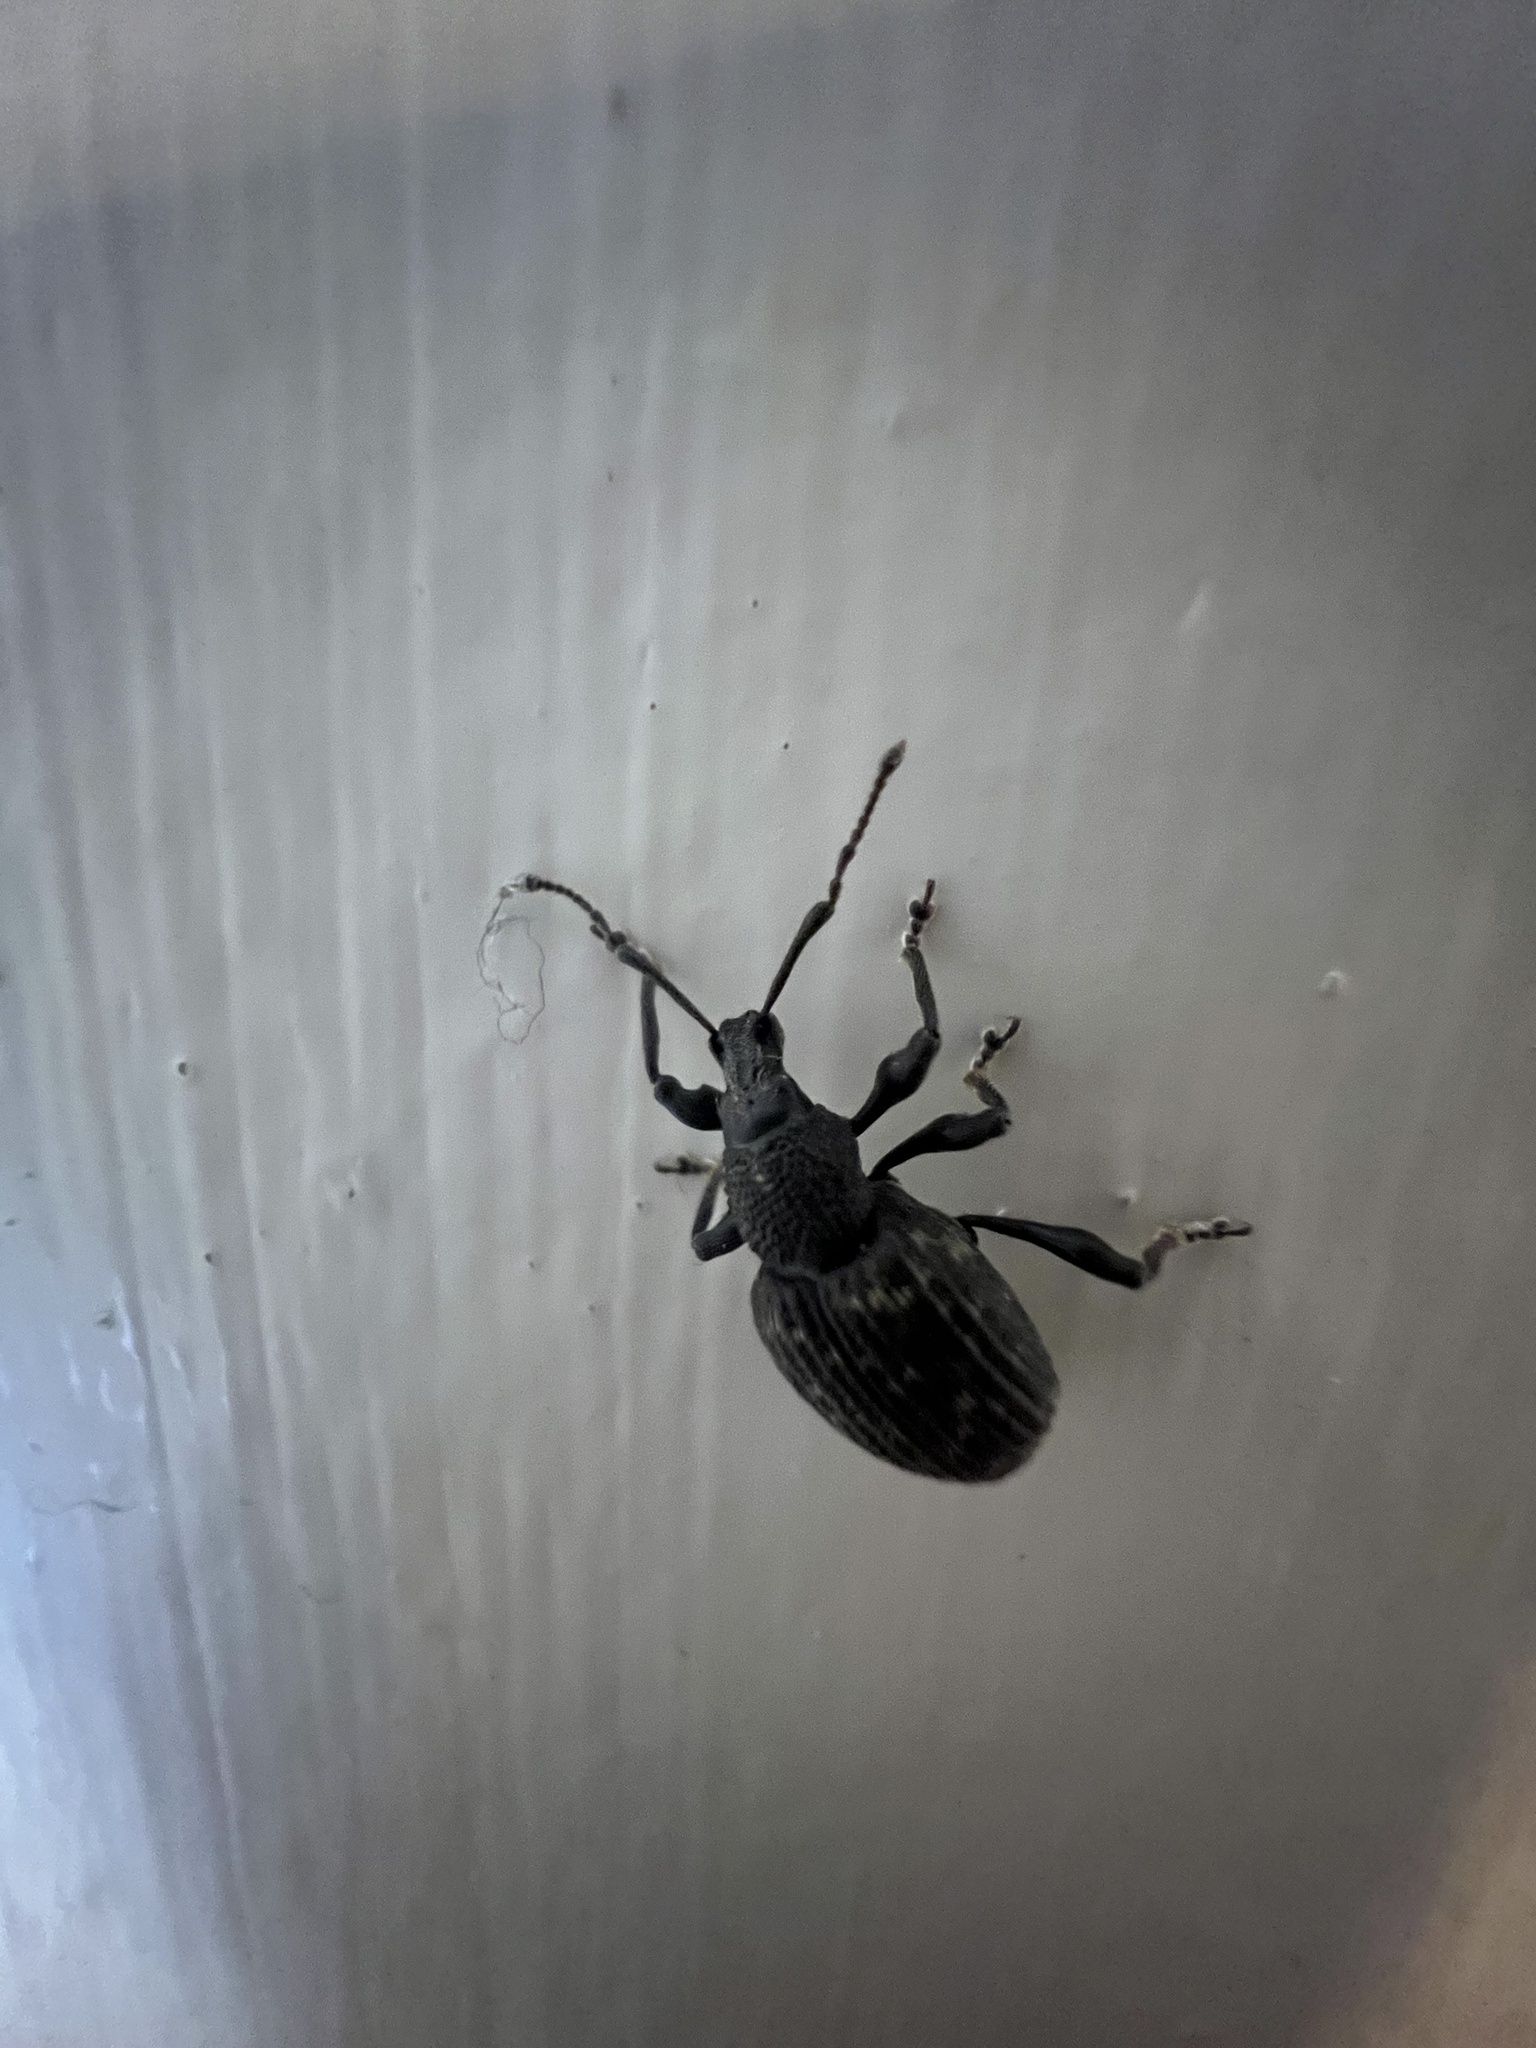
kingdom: Animalia
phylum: Arthropoda
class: Insecta
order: Coleoptera
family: Curculionidae
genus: Otiorhynchus
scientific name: Otiorhynchus sulcatus
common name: Black vine weevil
